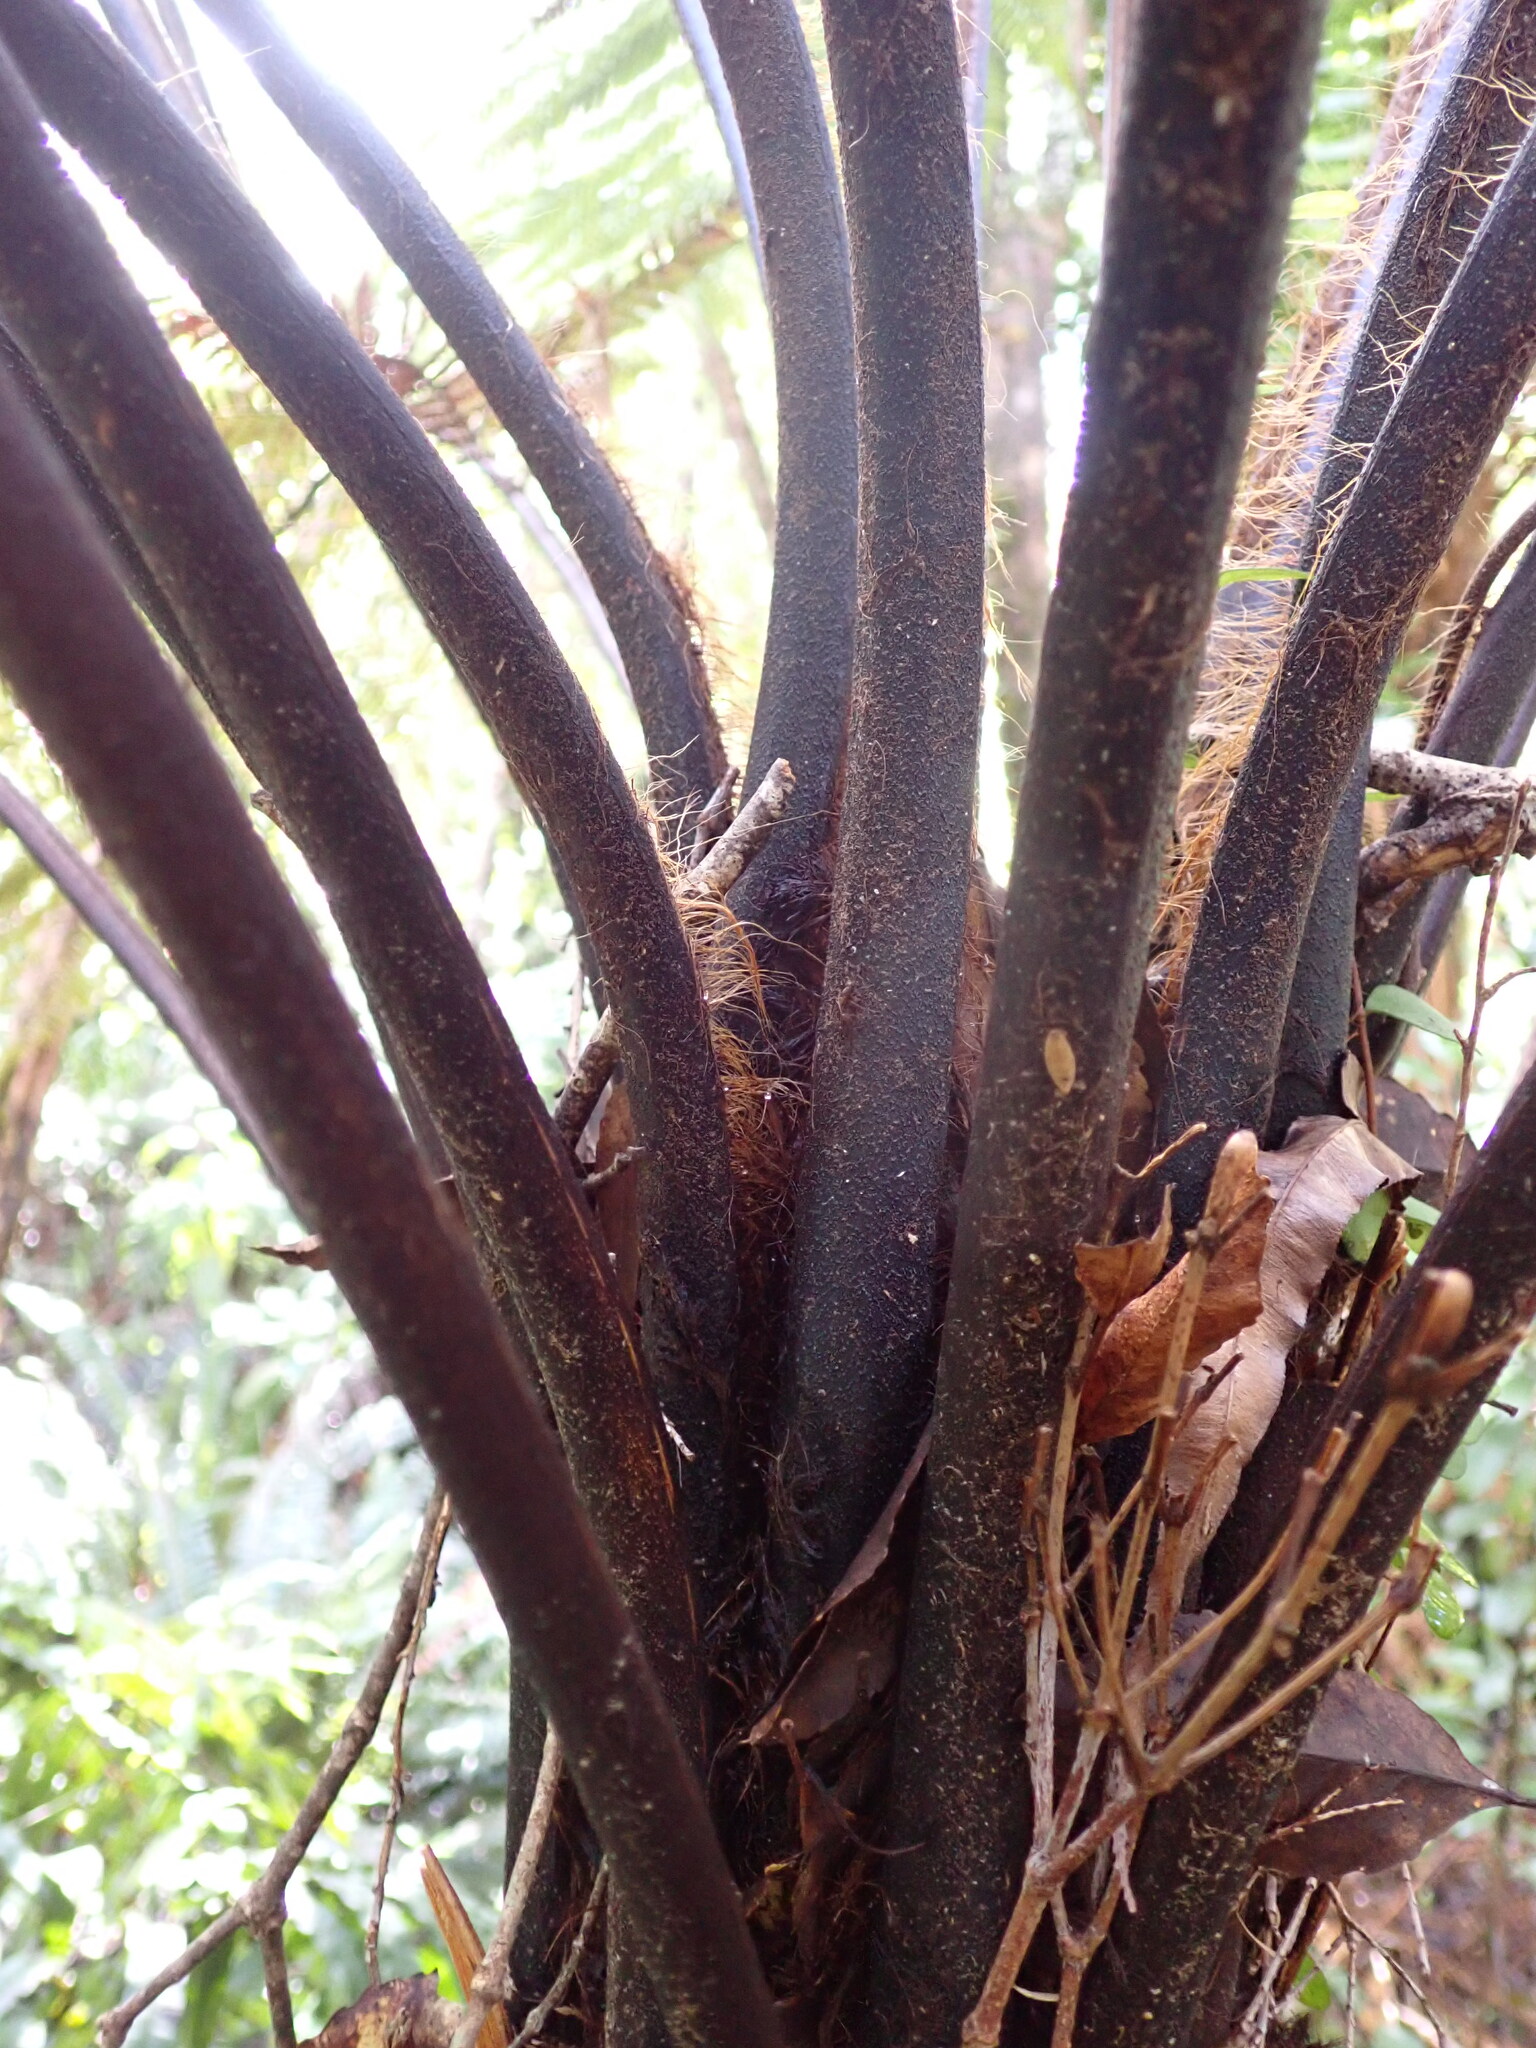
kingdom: Plantae
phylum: Tracheophyta
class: Polypodiopsida
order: Cyatheales
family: Dicksoniaceae
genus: Dicksonia
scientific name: Dicksonia squarrosa
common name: Hard treefern
